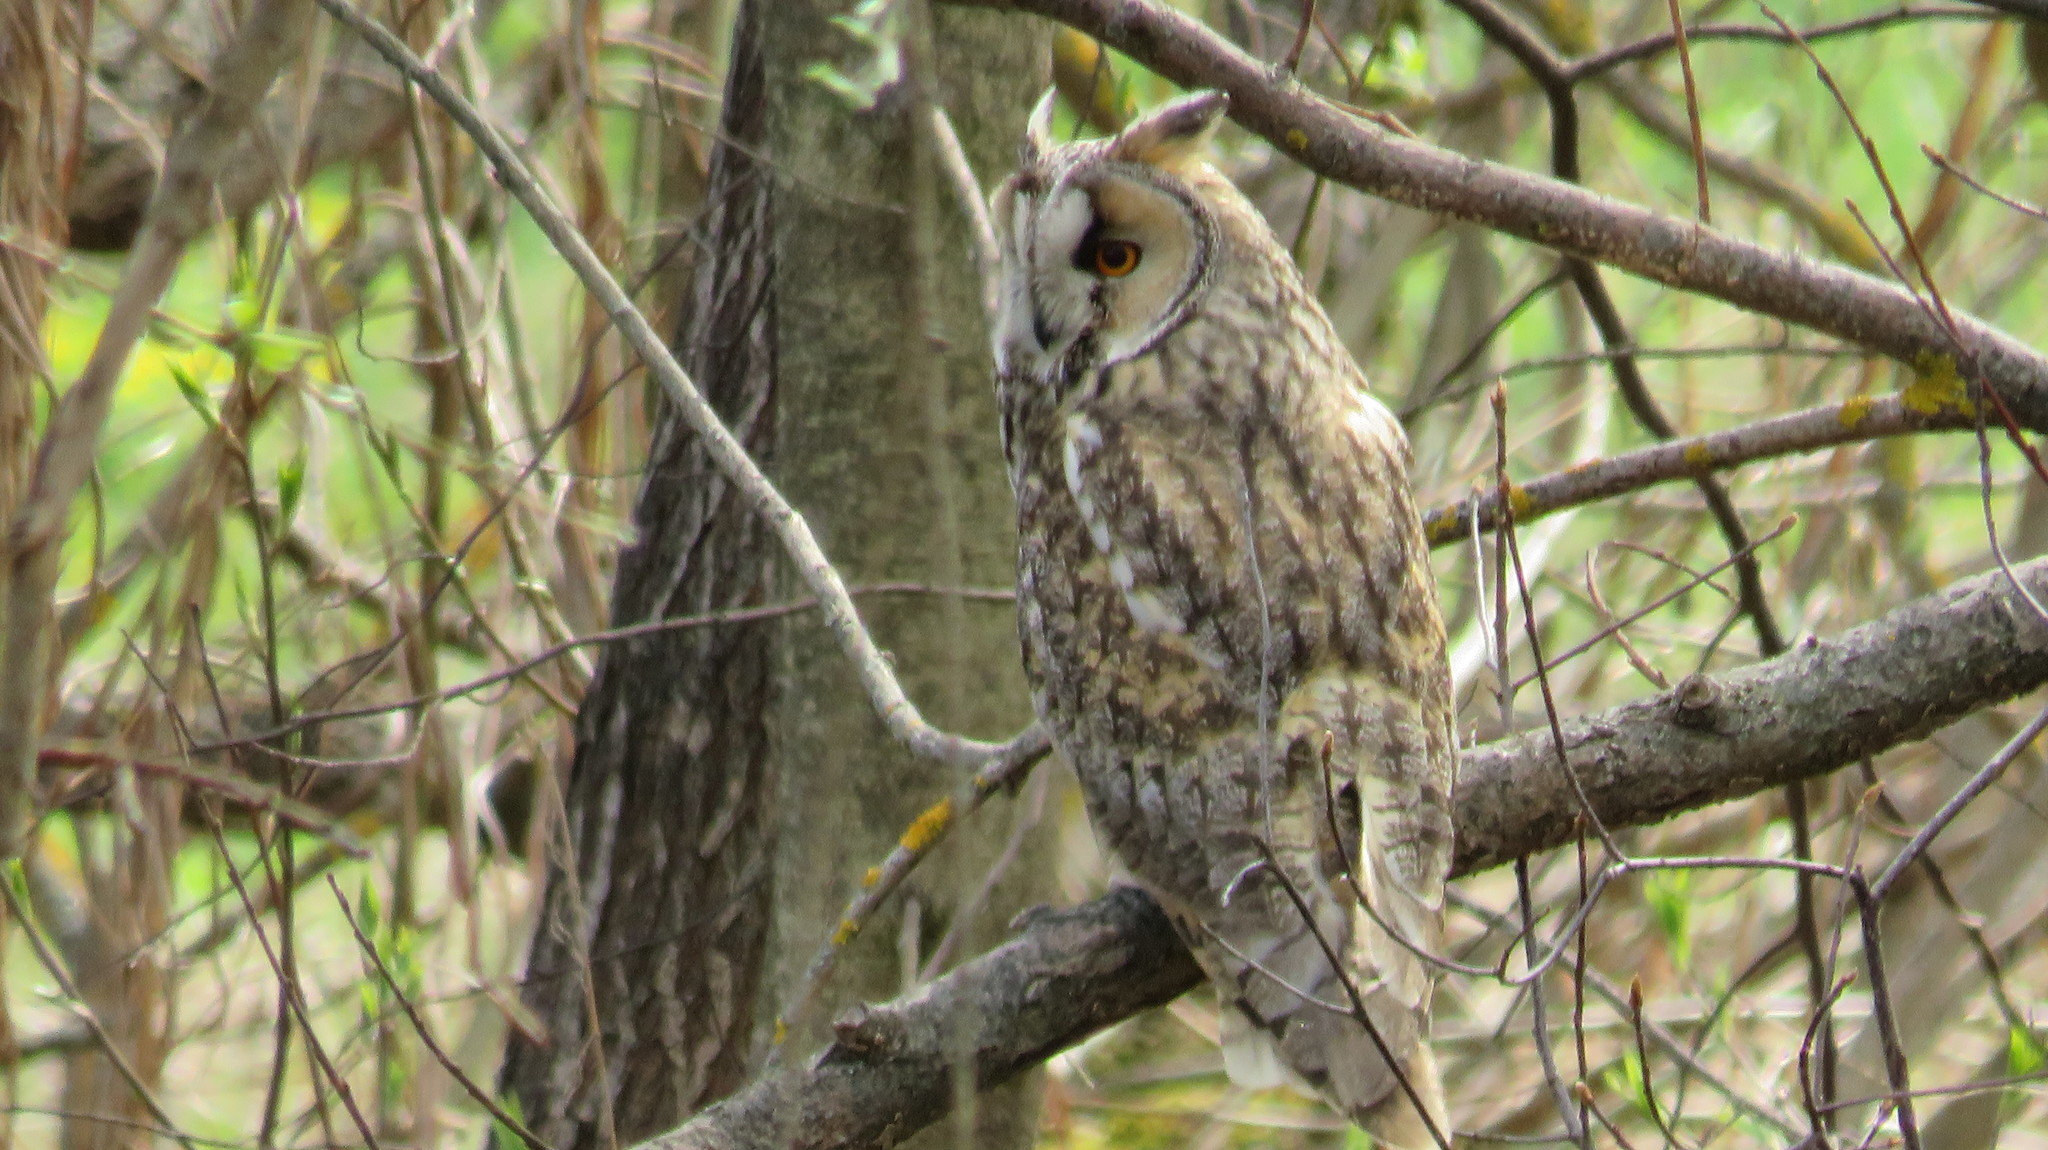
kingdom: Animalia
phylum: Chordata
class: Aves
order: Strigiformes
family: Strigidae
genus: Asio
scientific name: Asio otus
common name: Long-eared owl
